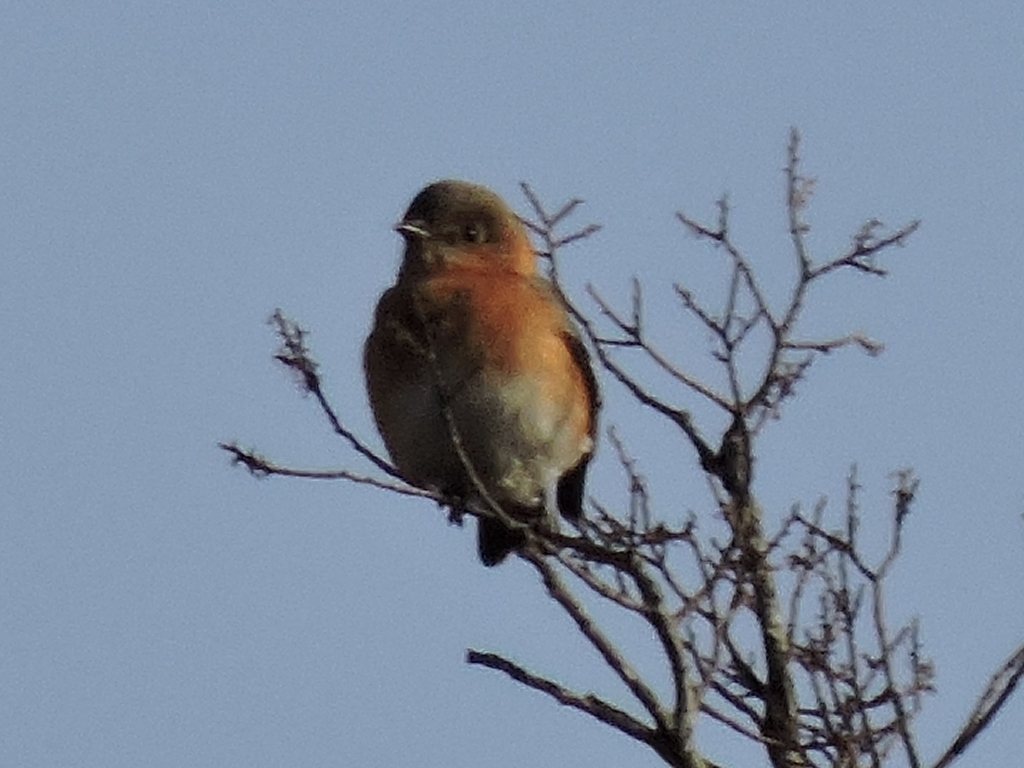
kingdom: Animalia
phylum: Chordata
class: Aves
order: Passeriformes
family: Turdidae
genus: Sialia
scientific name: Sialia sialis
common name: Eastern bluebird
